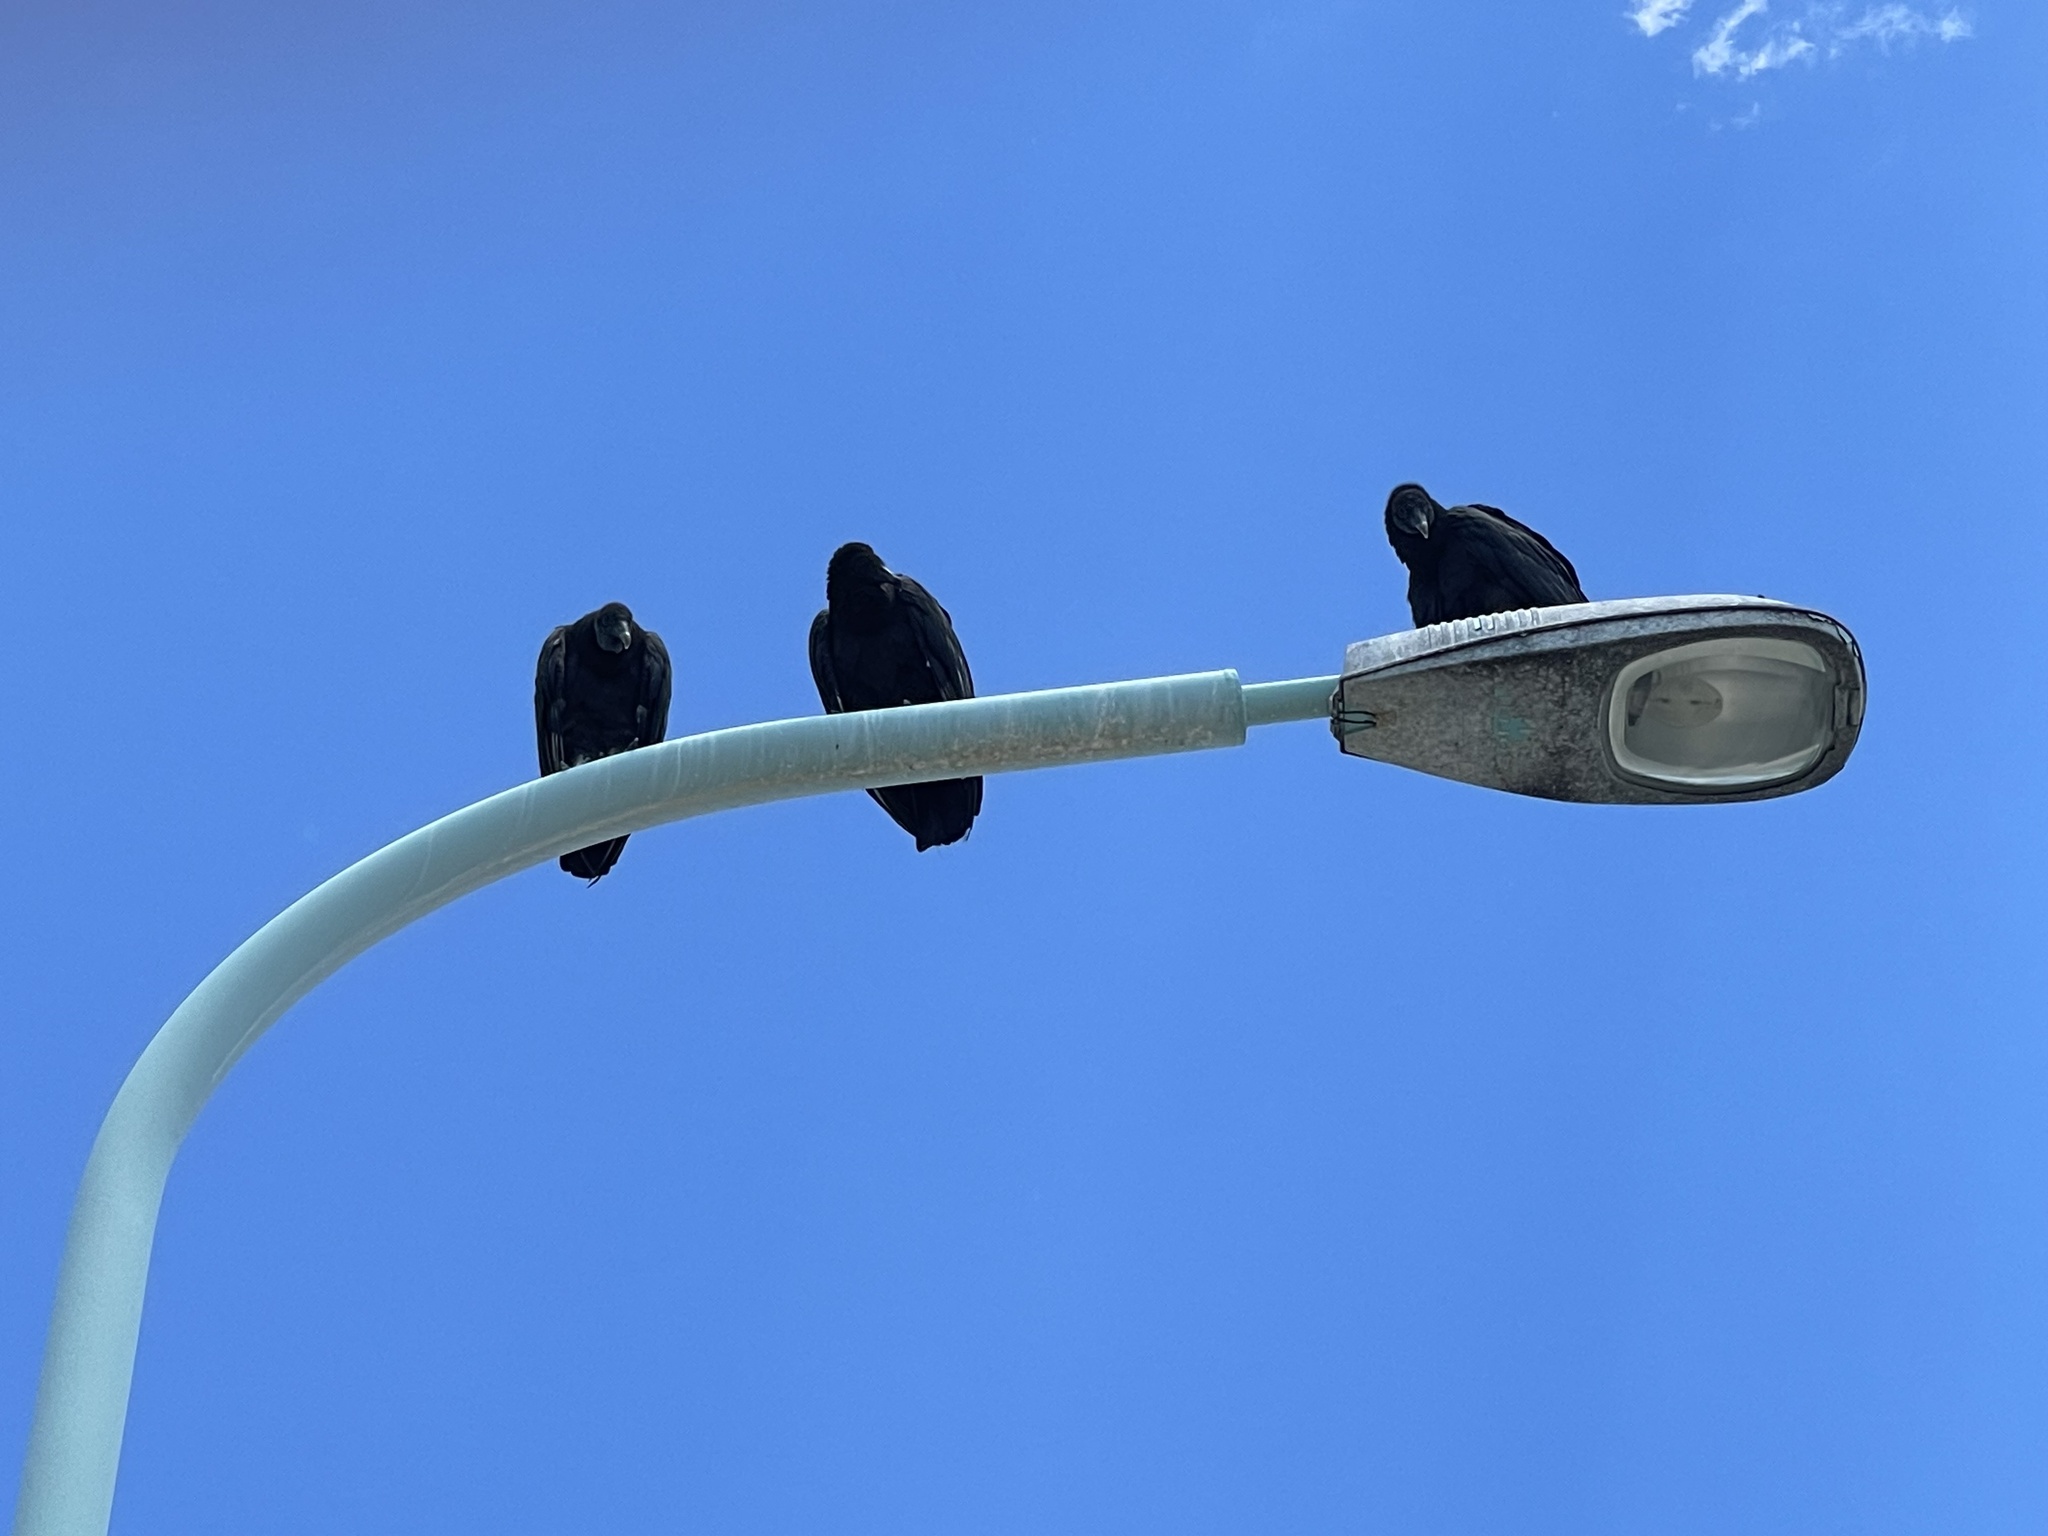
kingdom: Animalia
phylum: Chordata
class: Aves
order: Accipitriformes
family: Cathartidae
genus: Coragyps
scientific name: Coragyps atratus
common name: Black vulture
